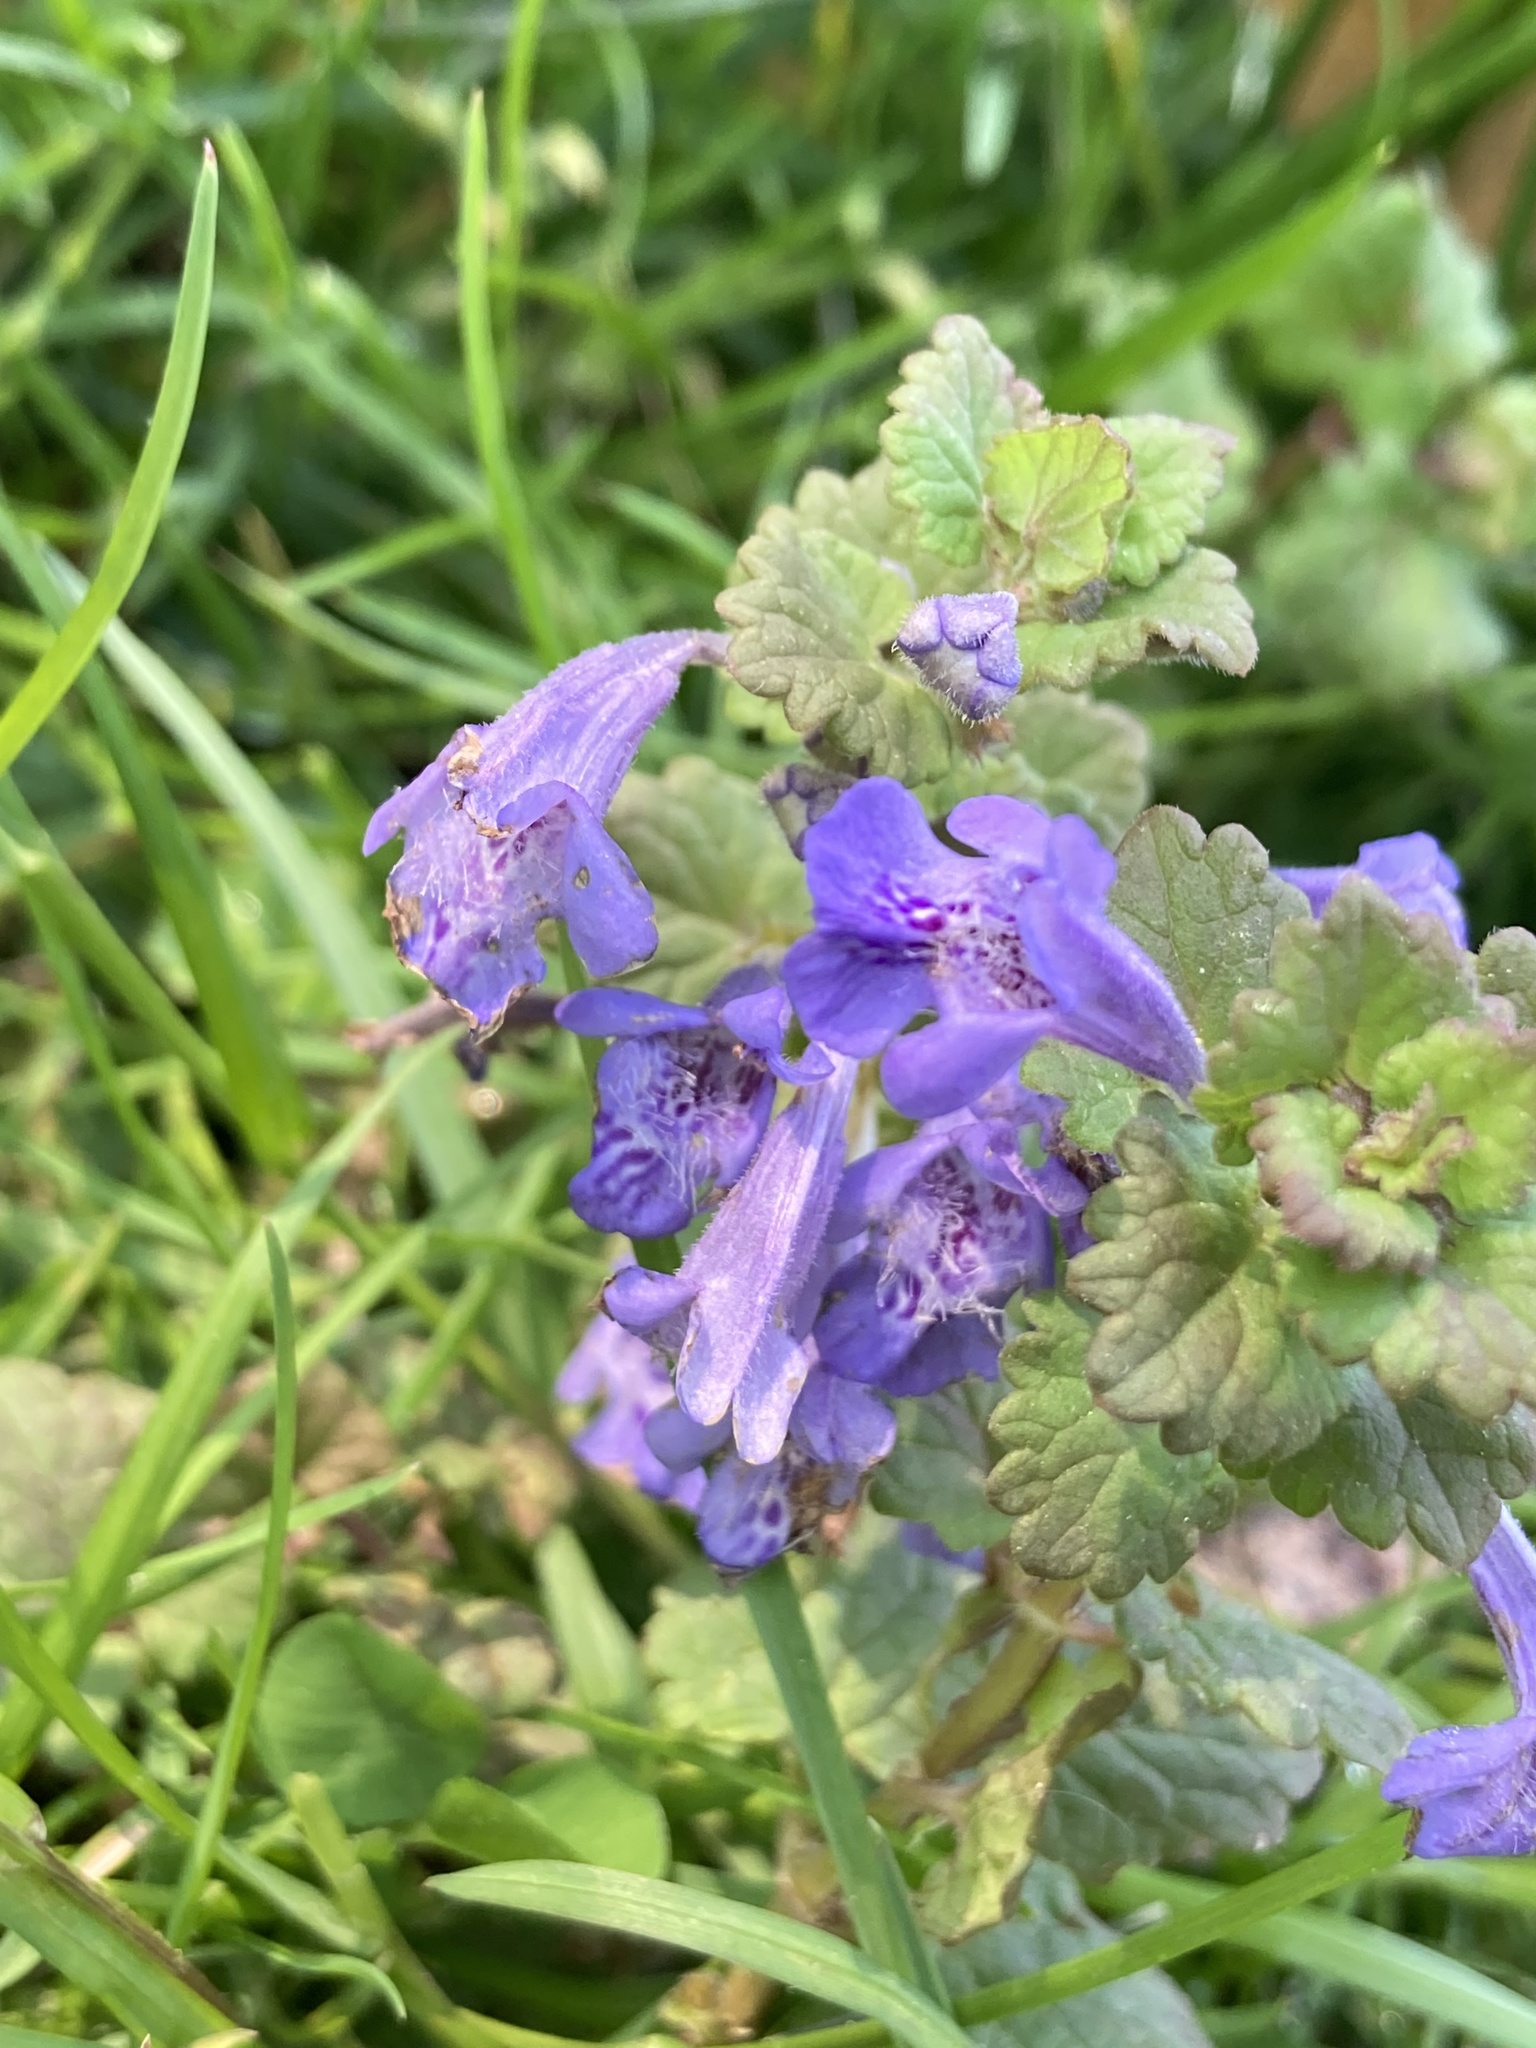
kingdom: Plantae
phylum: Tracheophyta
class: Magnoliopsida
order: Lamiales
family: Lamiaceae
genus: Glechoma
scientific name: Glechoma hederacea
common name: Ground ivy
